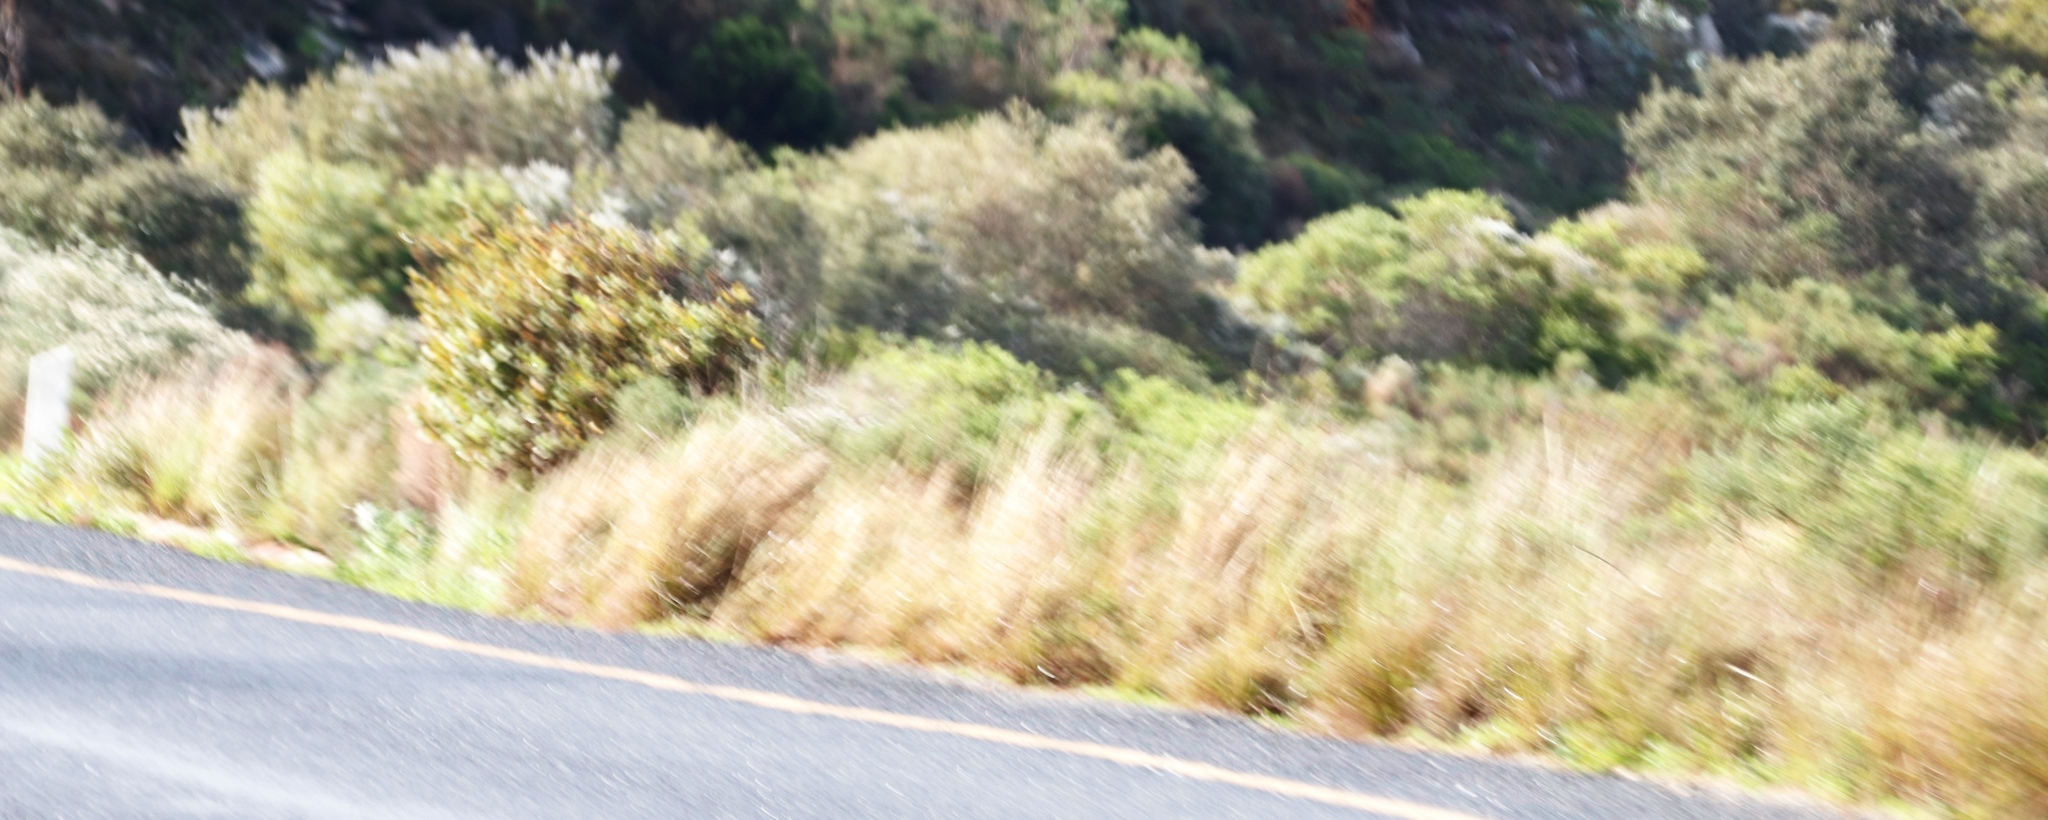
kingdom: Plantae
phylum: Tracheophyta
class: Liliopsida
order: Poales
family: Poaceae
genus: Hyparrhenia
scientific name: Hyparrhenia hirta
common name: Thatching grass
